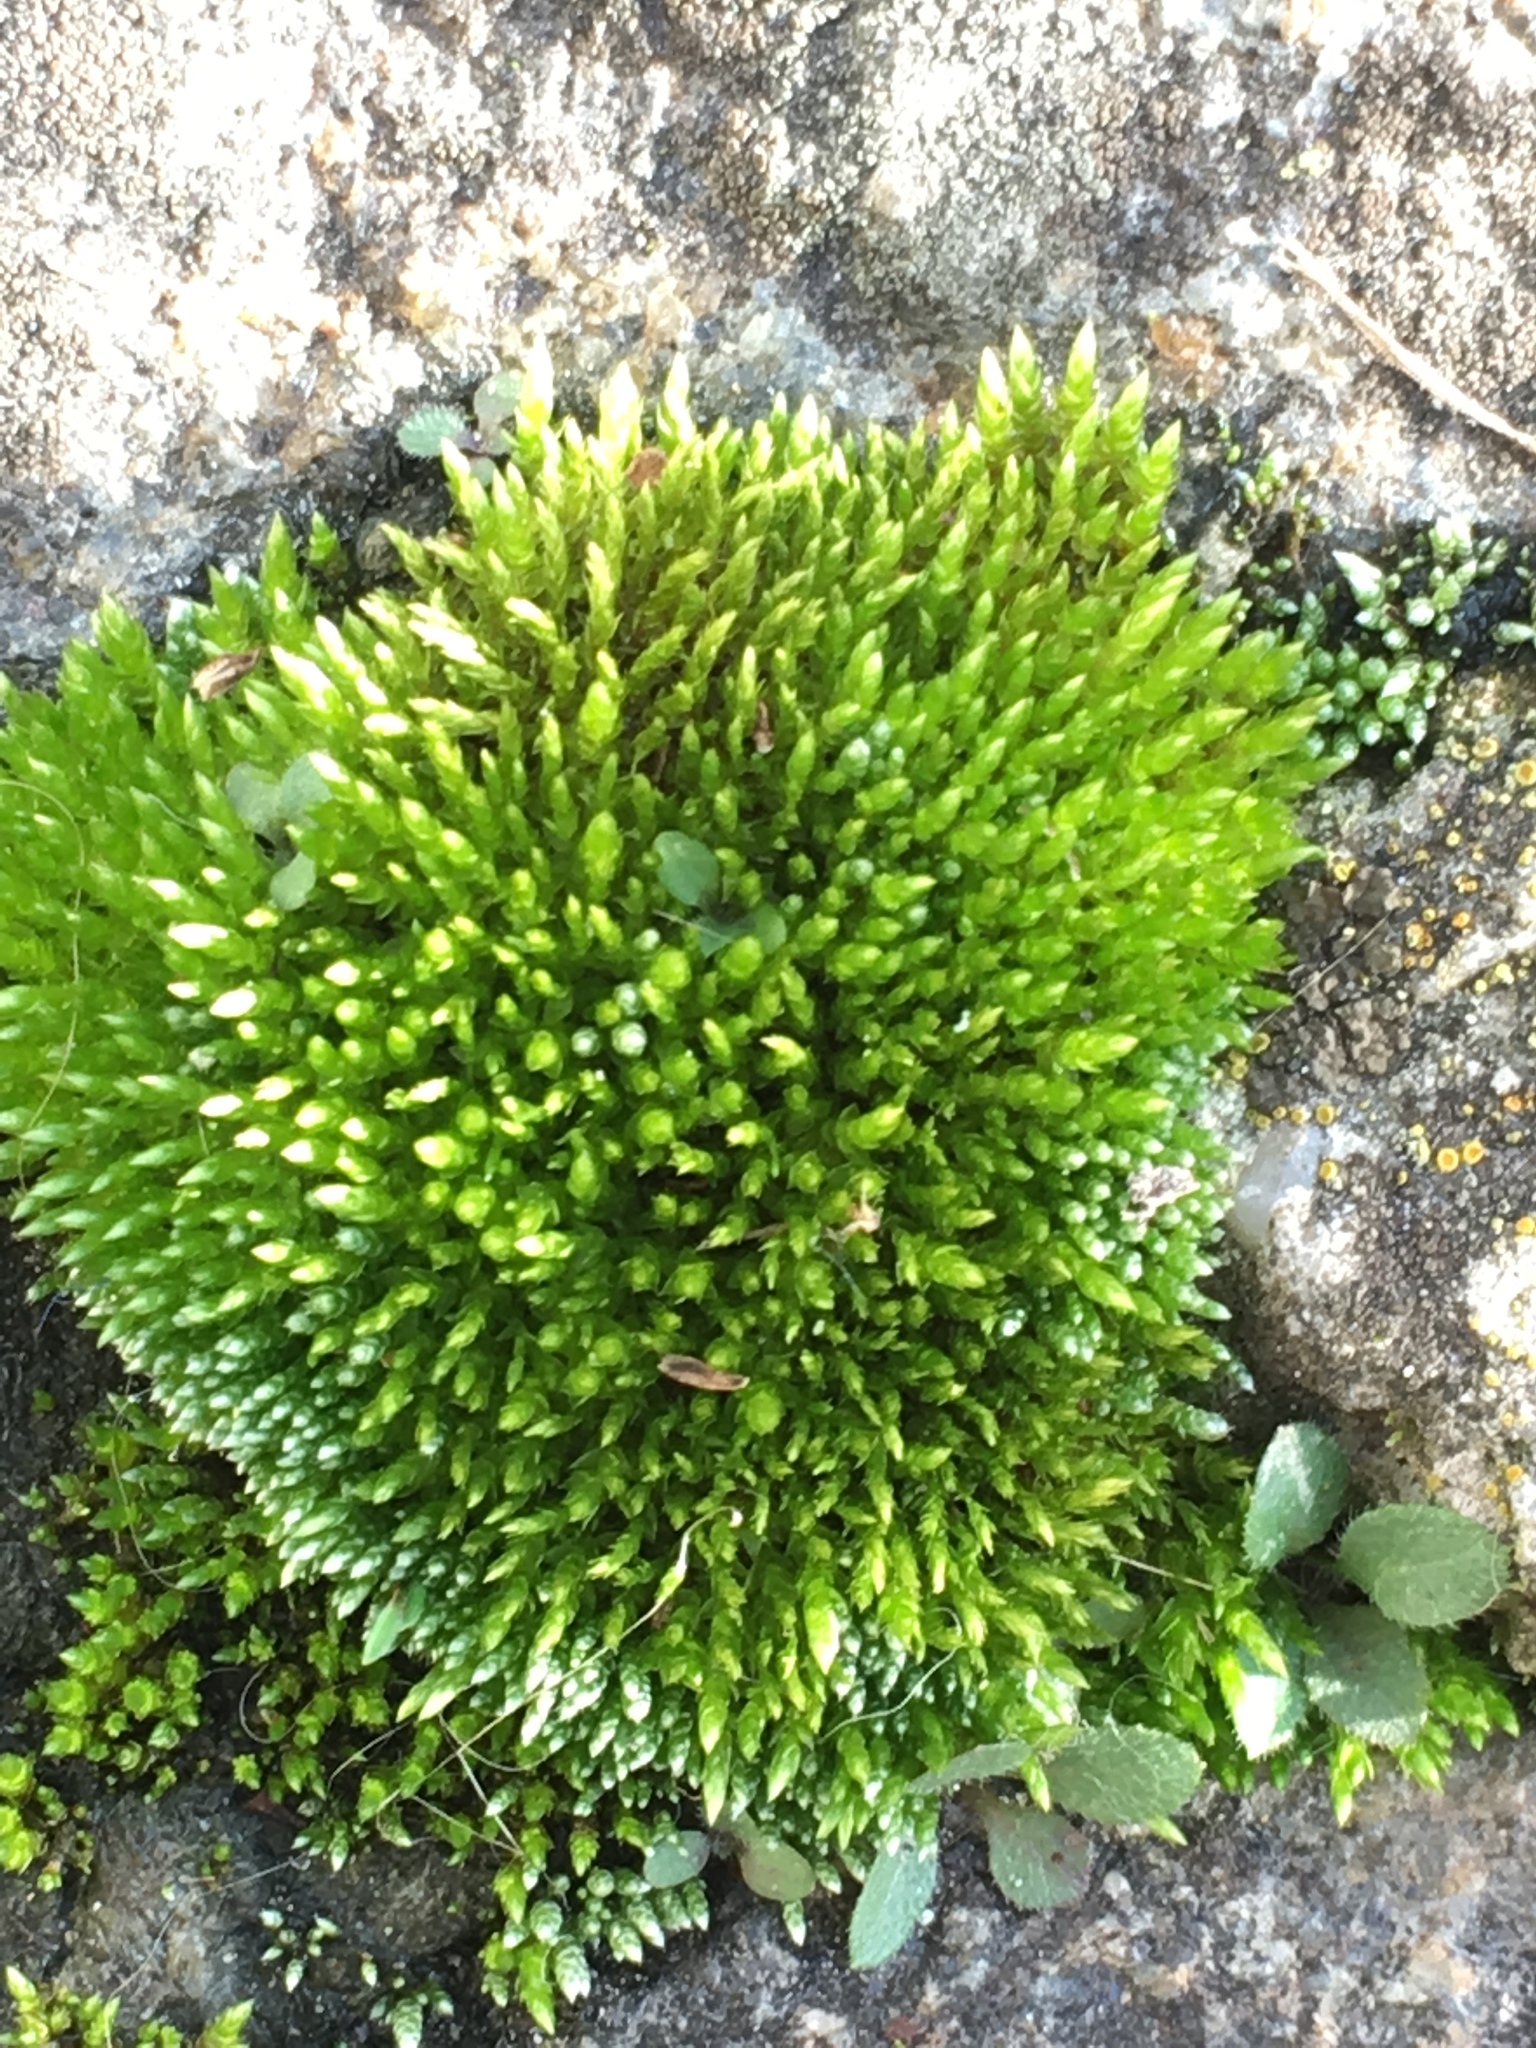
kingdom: Plantae
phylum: Bryophyta
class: Bryopsida
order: Bryales
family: Bryaceae
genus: Bryum
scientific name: Bryum argenteum
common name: Silver-moss
